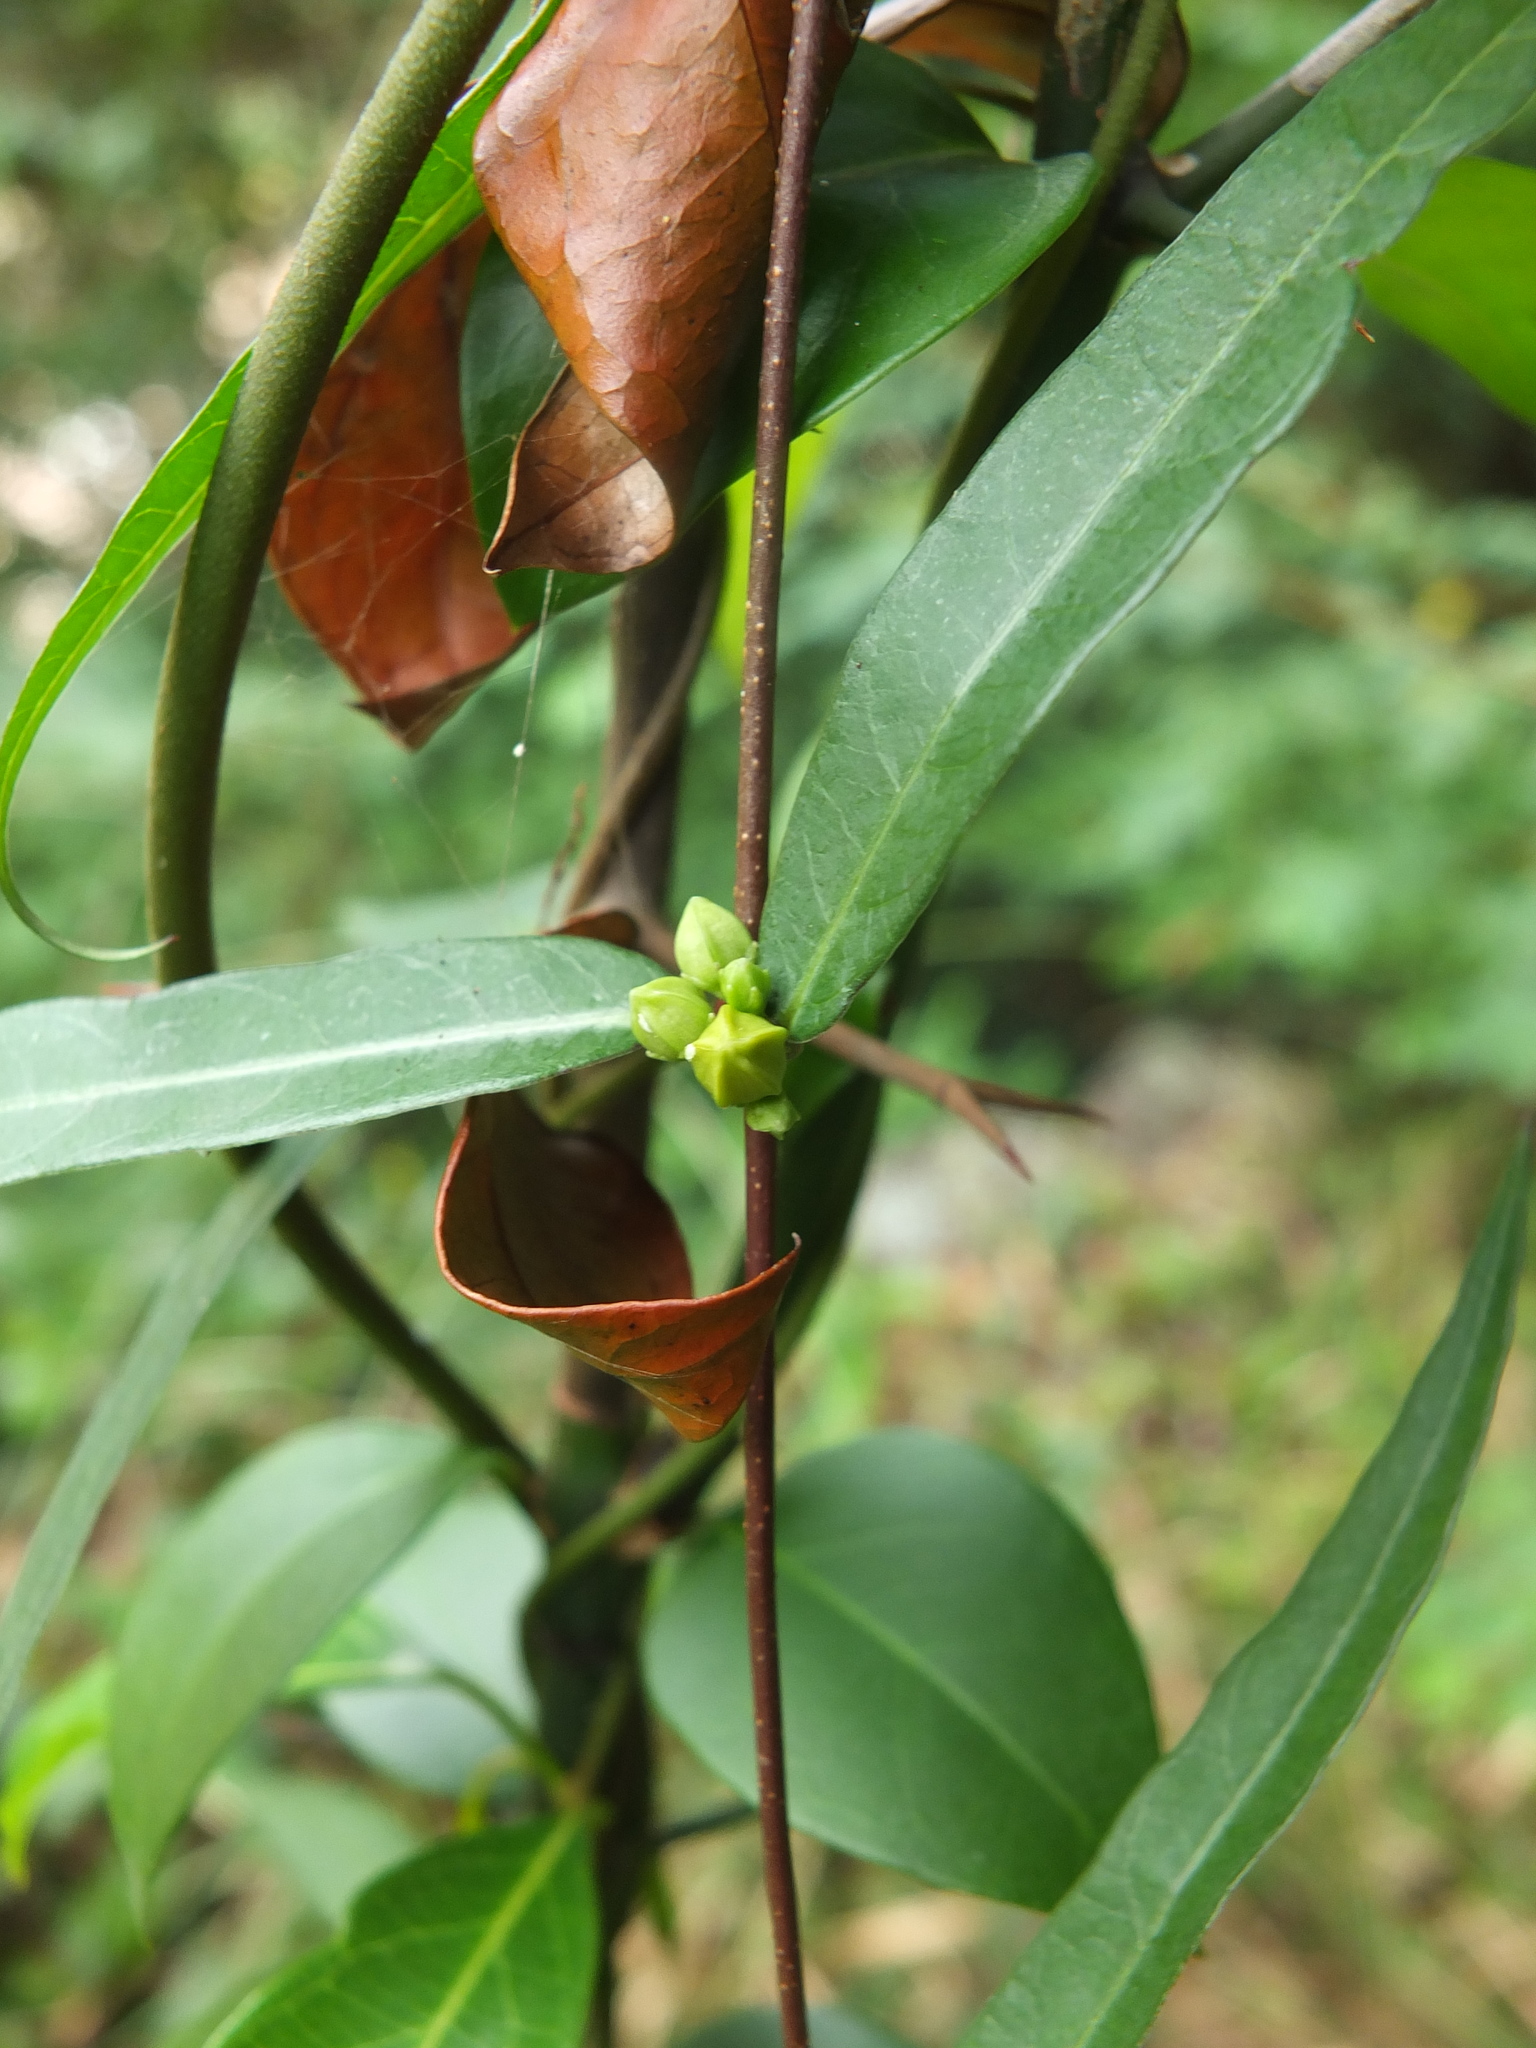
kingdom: Plantae
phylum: Tracheophyta
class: Magnoliopsida
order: Gentianales
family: Apocynaceae
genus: Hemidesmus
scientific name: Hemidesmus indicus
